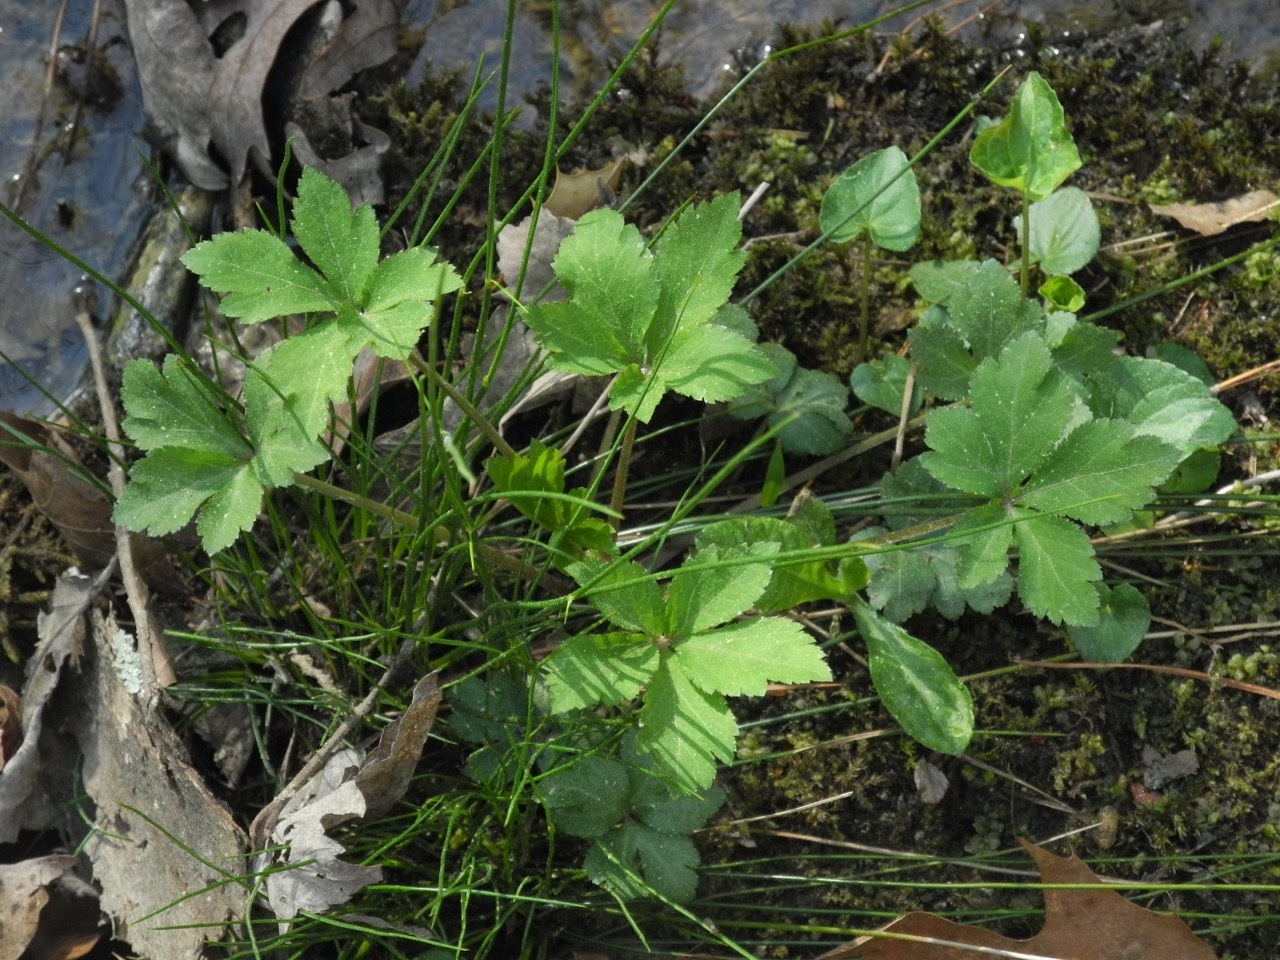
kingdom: Plantae
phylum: Tracheophyta
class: Magnoliopsida
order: Apiales
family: Apiaceae
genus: Sanicula
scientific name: Sanicula canadensis
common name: Canada sanicle
